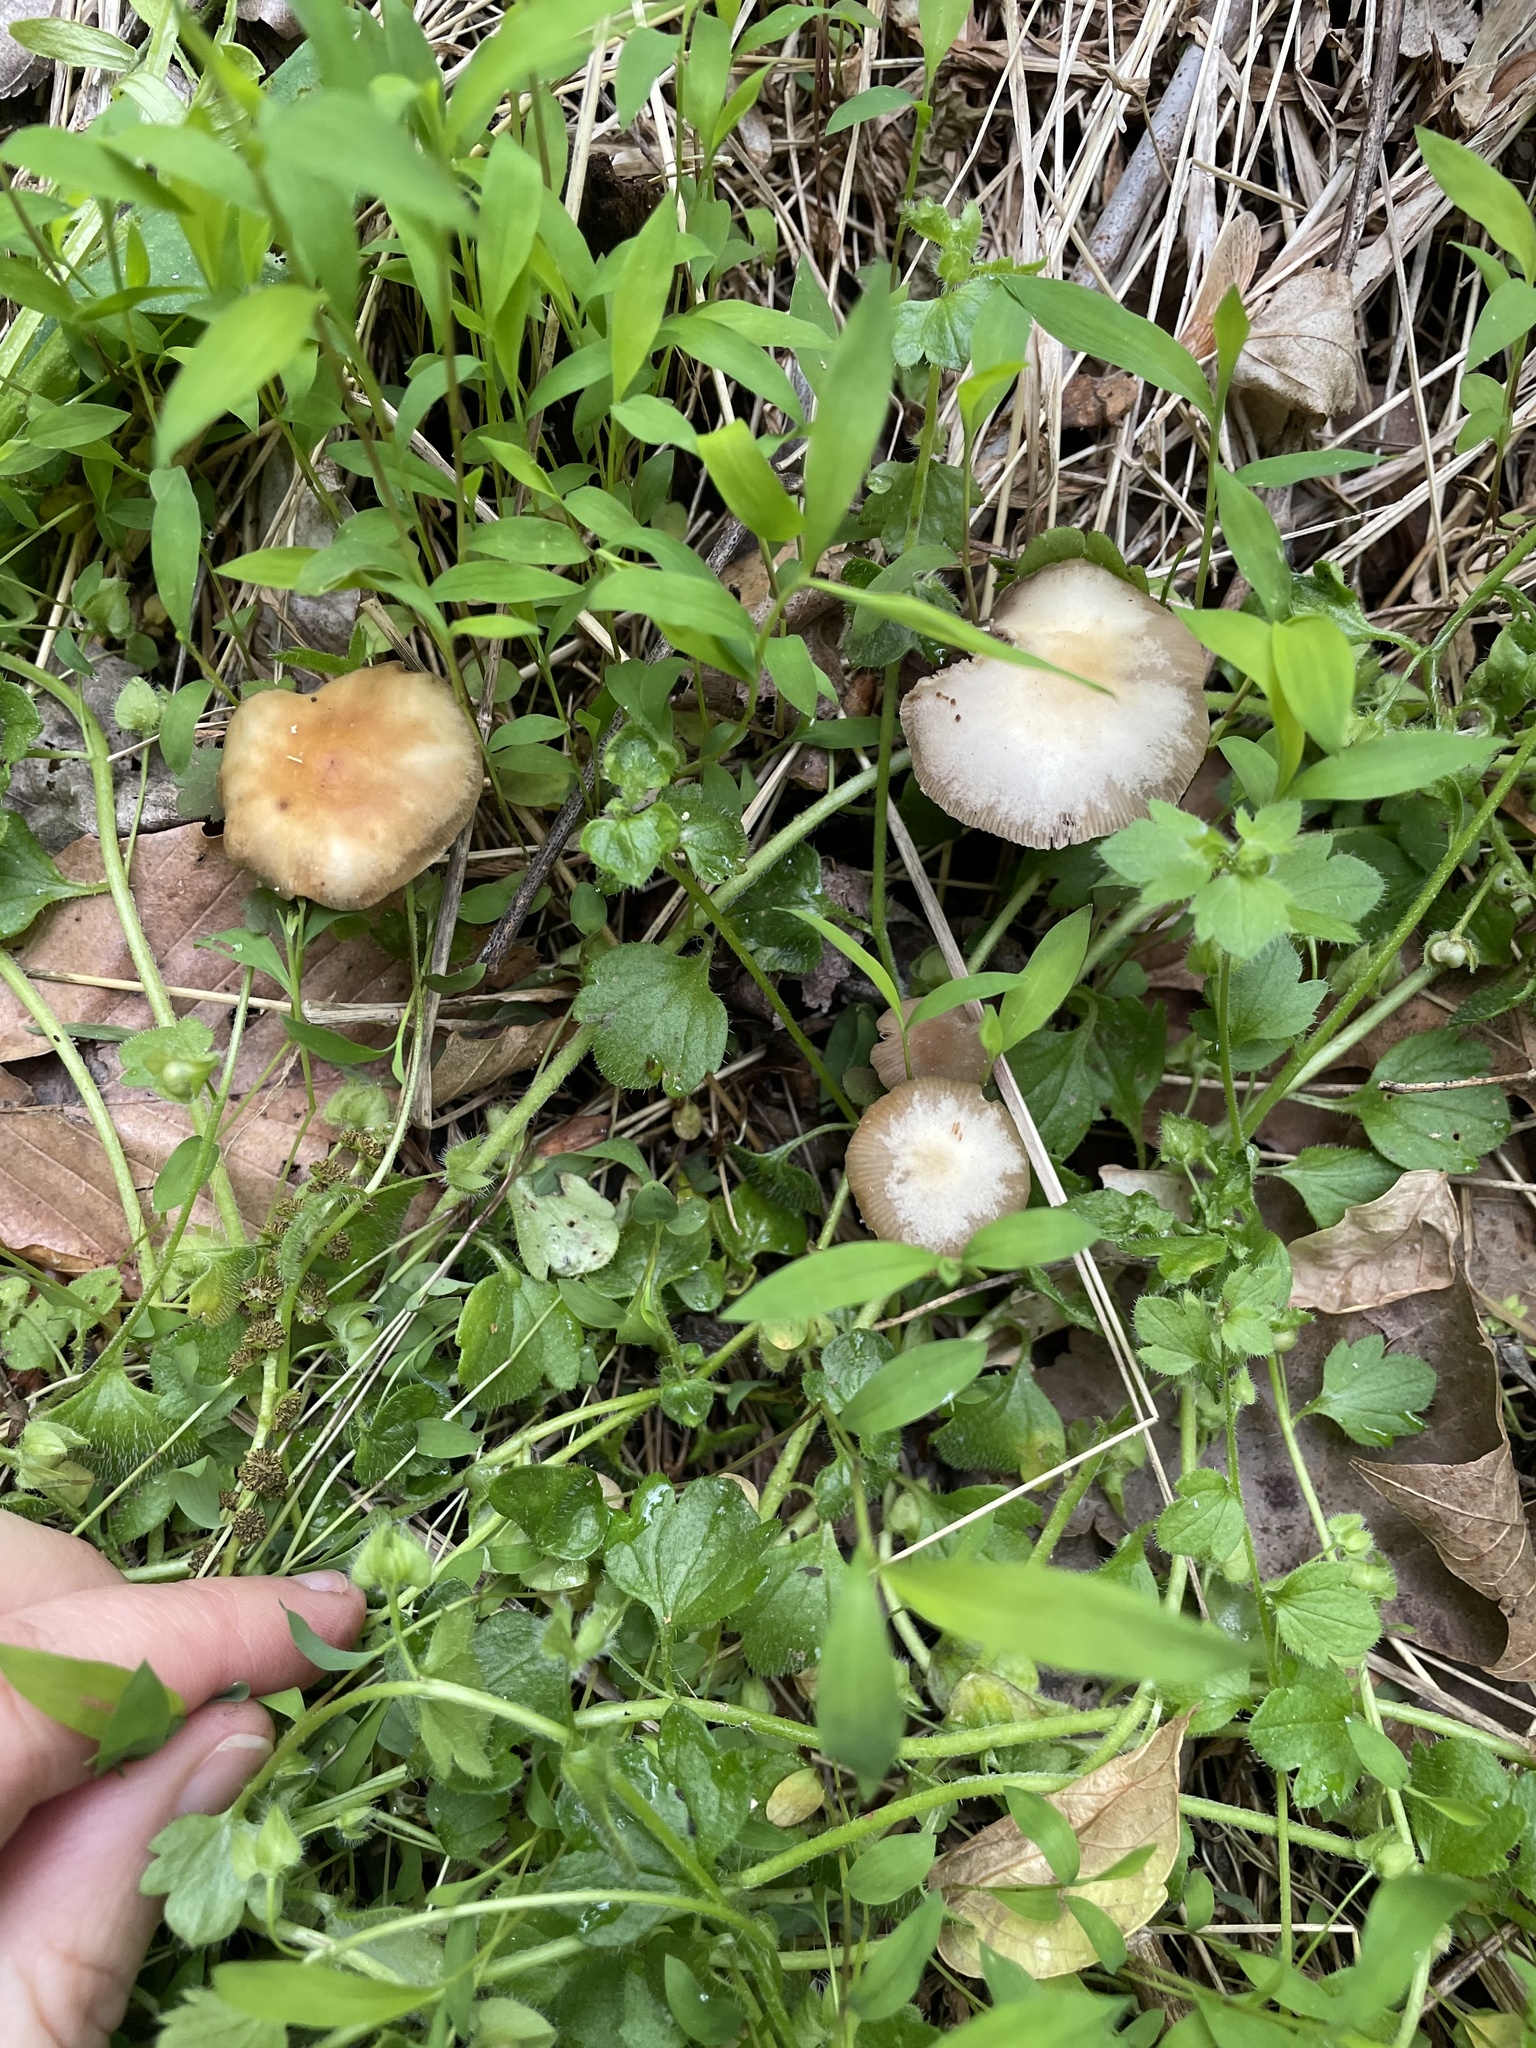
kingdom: Fungi
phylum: Basidiomycota
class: Agaricomycetes
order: Agaricales
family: Hymenogastraceae
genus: Psilocybe
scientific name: Psilocybe ovoideocystidiata
